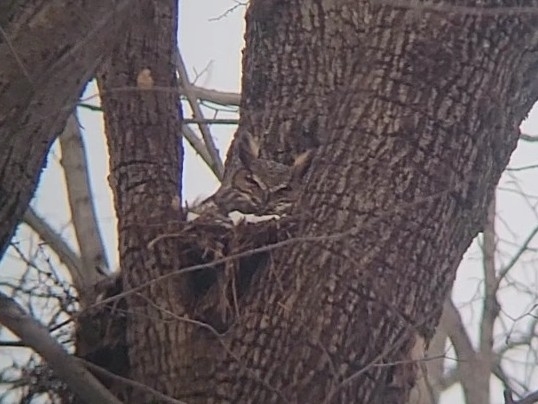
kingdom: Animalia
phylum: Chordata
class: Aves
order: Strigiformes
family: Strigidae
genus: Bubo
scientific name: Bubo virginianus
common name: Great horned owl
